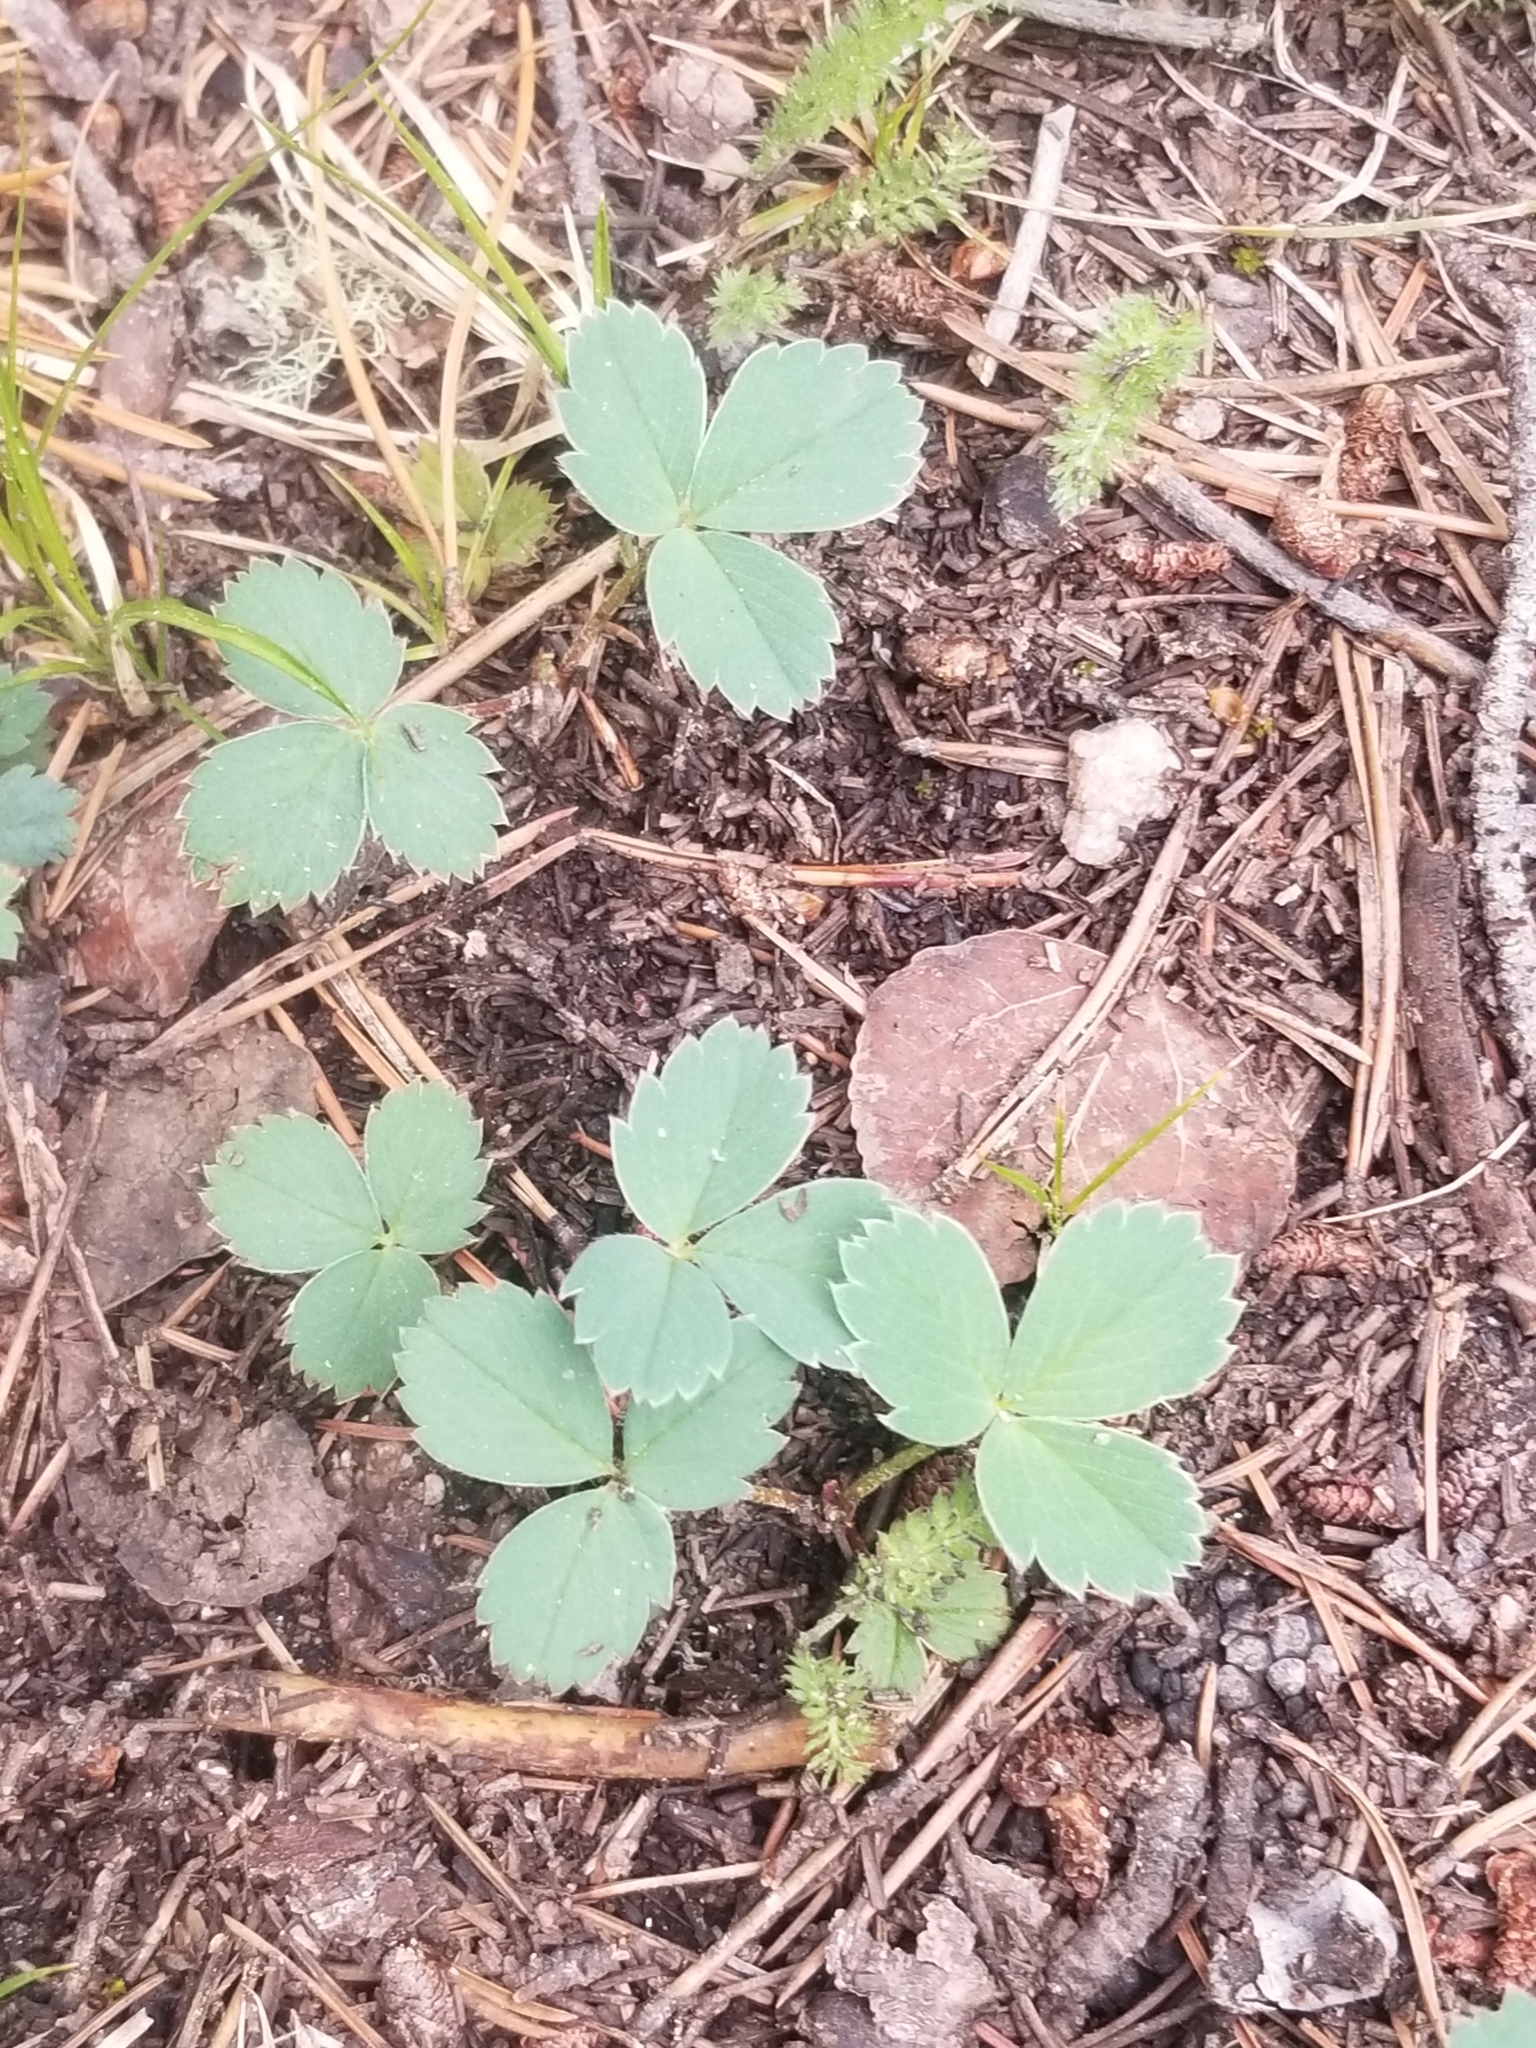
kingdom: Plantae
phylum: Tracheophyta
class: Magnoliopsida
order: Rosales
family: Rosaceae
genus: Fragaria
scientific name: Fragaria virginiana
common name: Thickleaved wild strawberry
